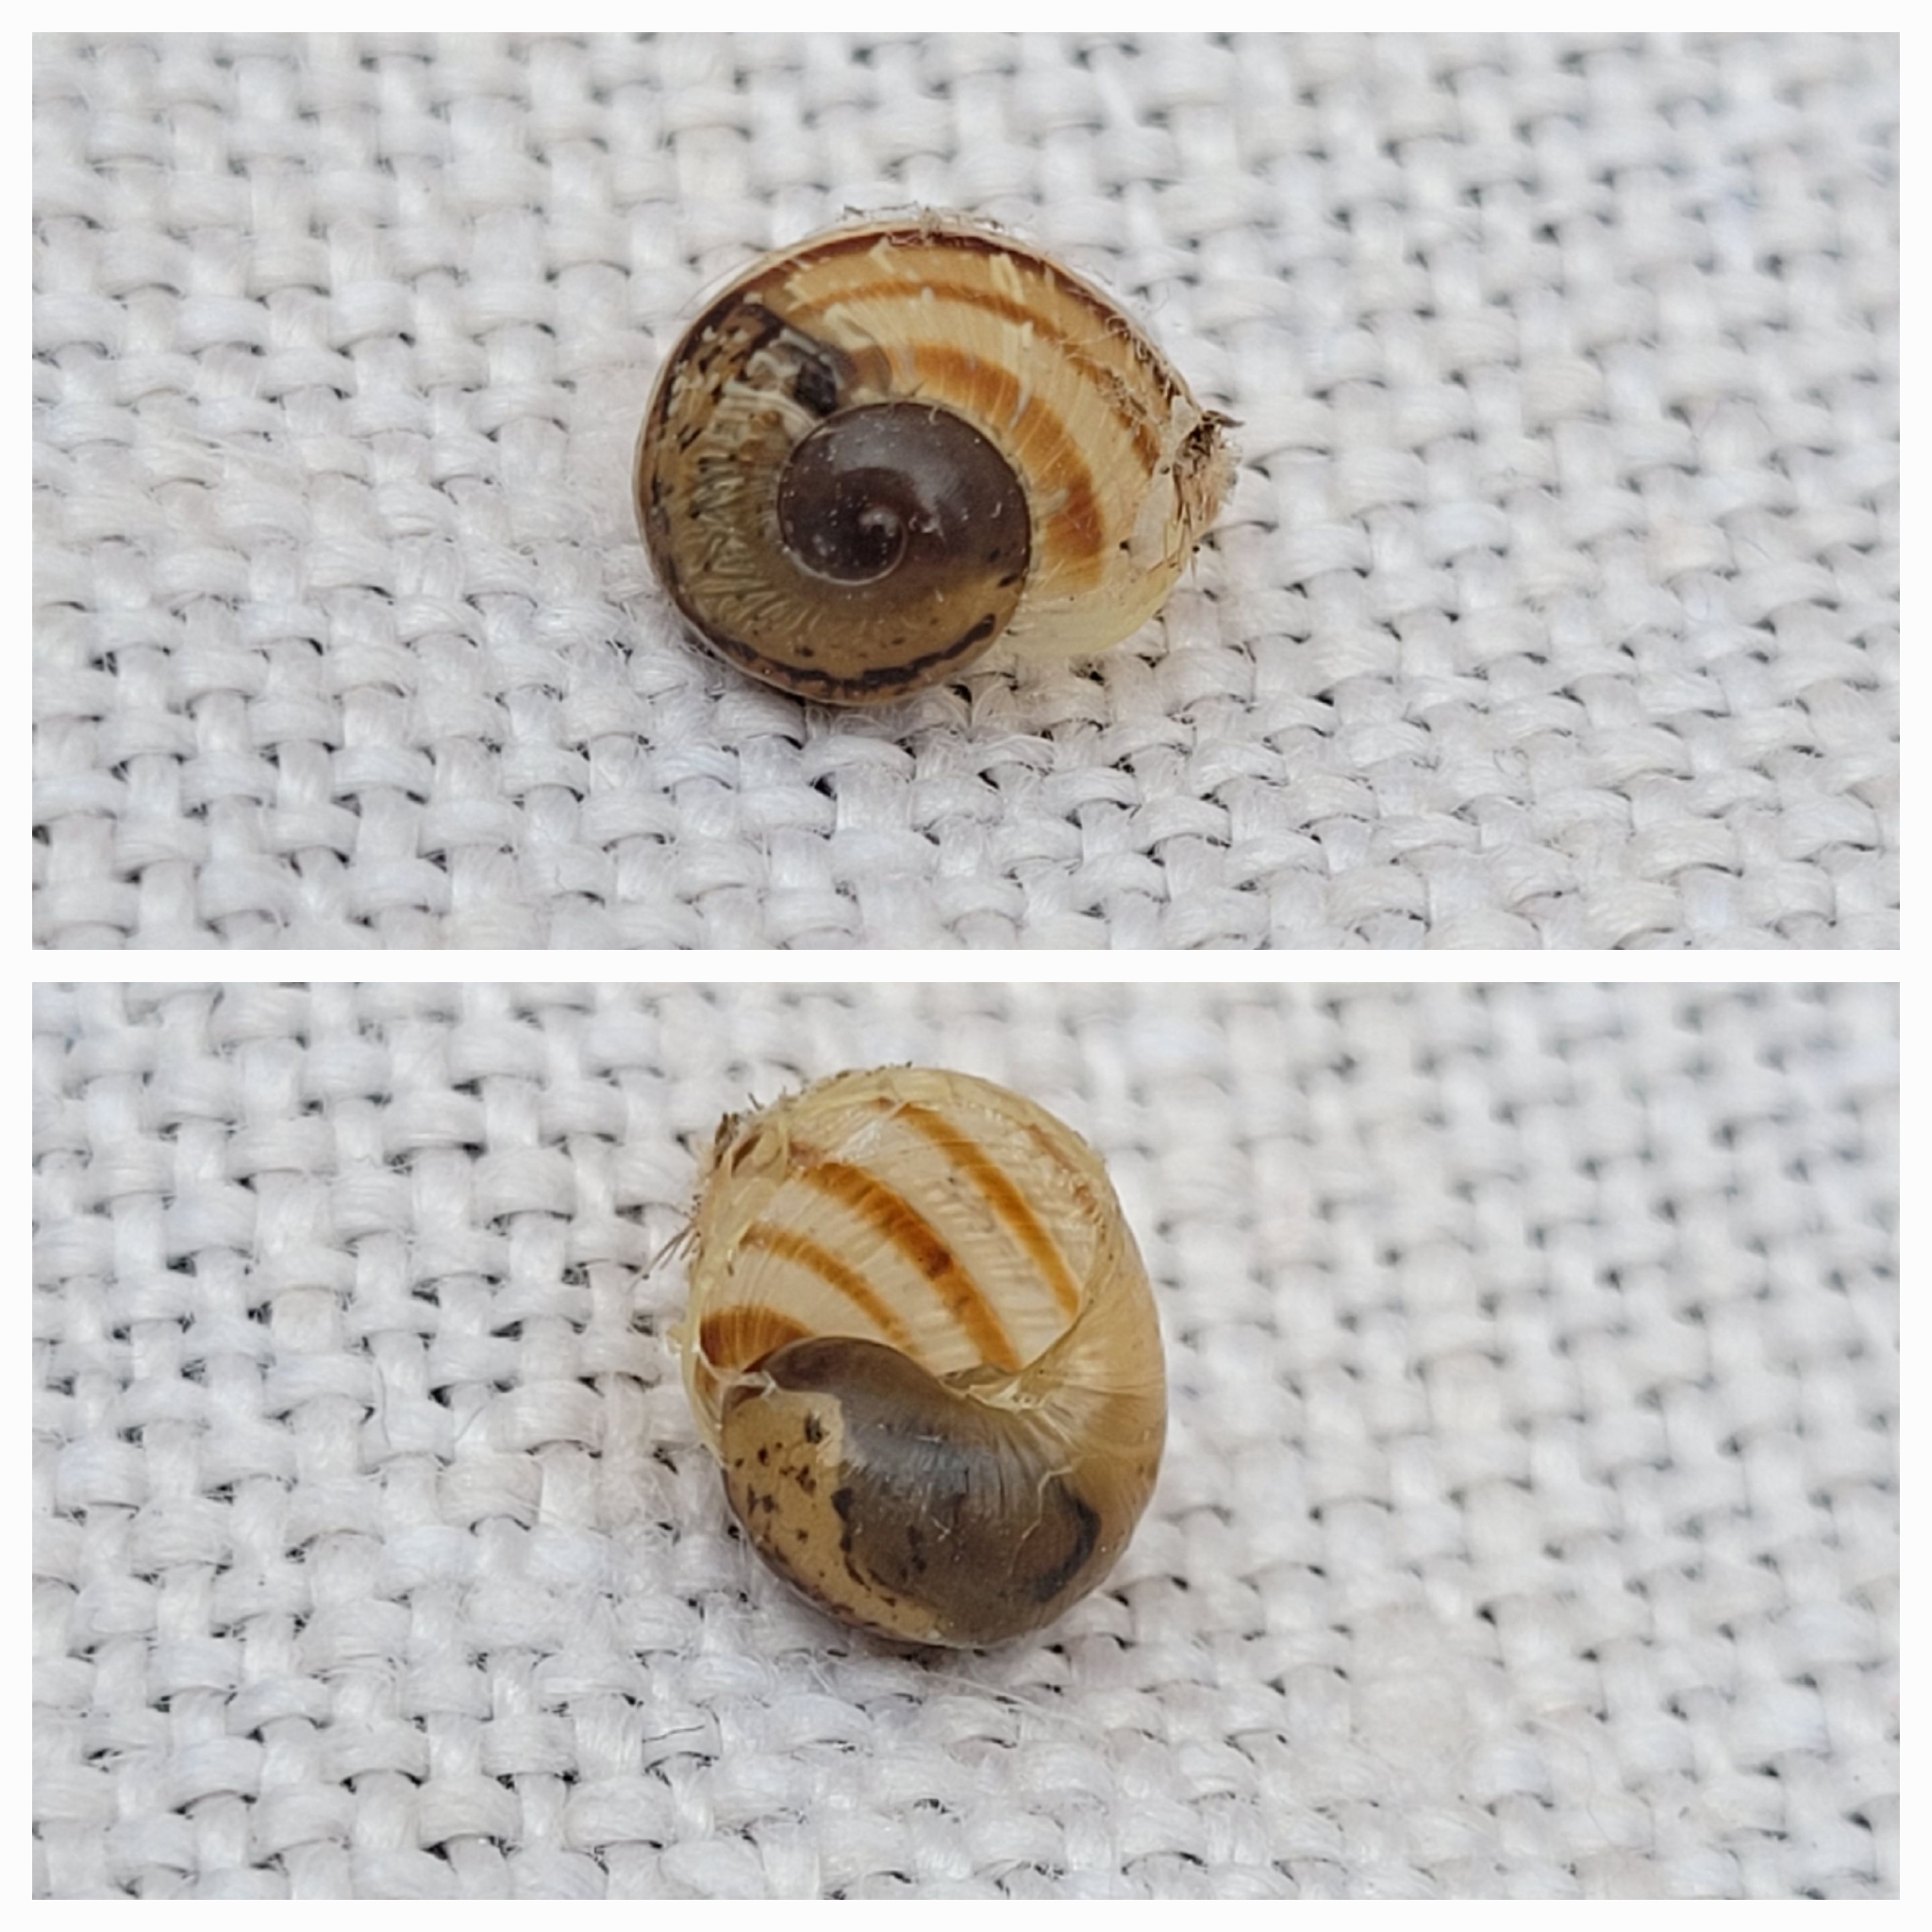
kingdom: Animalia
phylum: Mollusca
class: Gastropoda
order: Stylommatophora
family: Helicidae
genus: Cornu
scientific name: Cornu aspersum
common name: Brown garden snail
